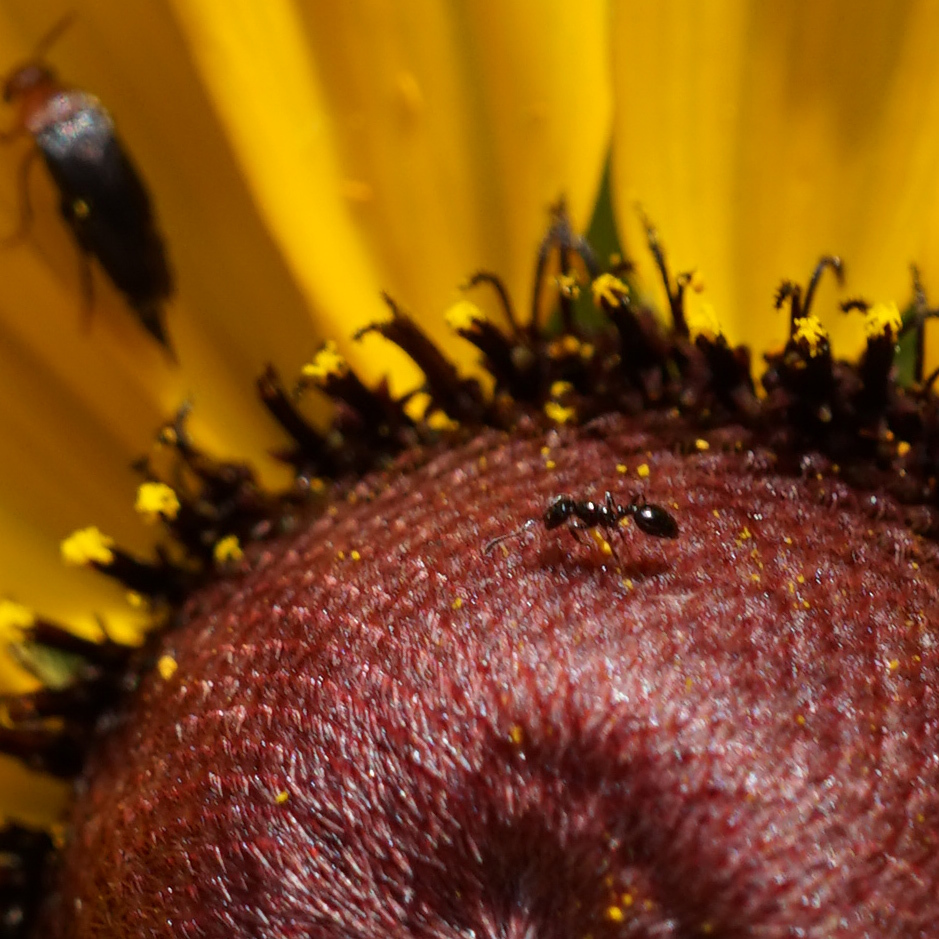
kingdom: Animalia
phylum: Arthropoda
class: Insecta
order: Hymenoptera
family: Formicidae
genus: Monomorium
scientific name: Monomorium minimum
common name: Little black ant
